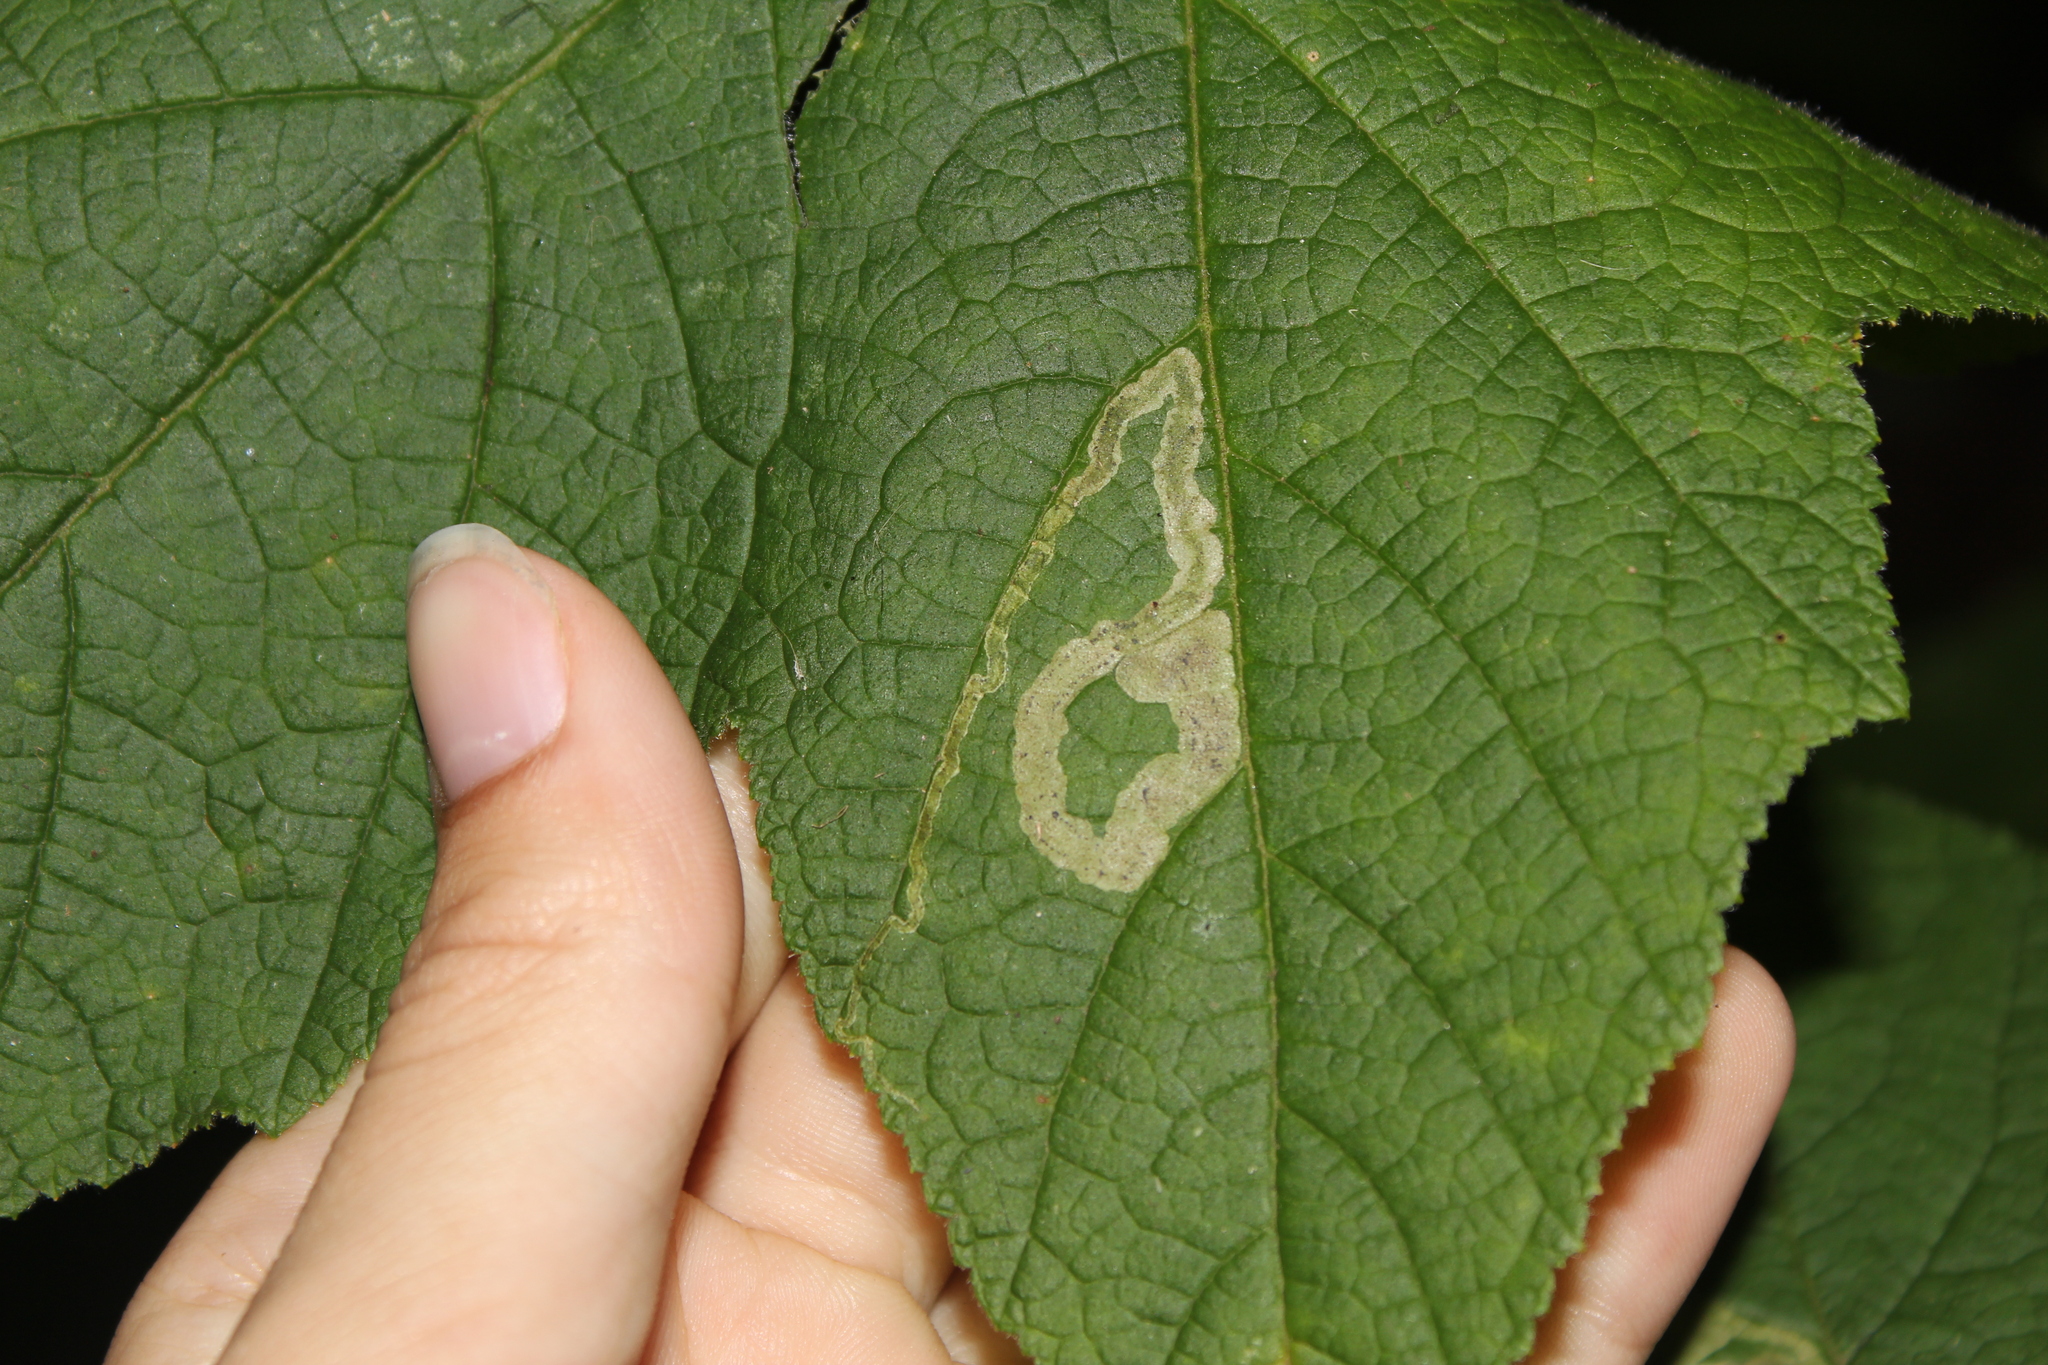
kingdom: Animalia
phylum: Arthropoda
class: Insecta
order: Diptera
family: Agromyzidae
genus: Agromyza
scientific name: Agromyza vockerothi
